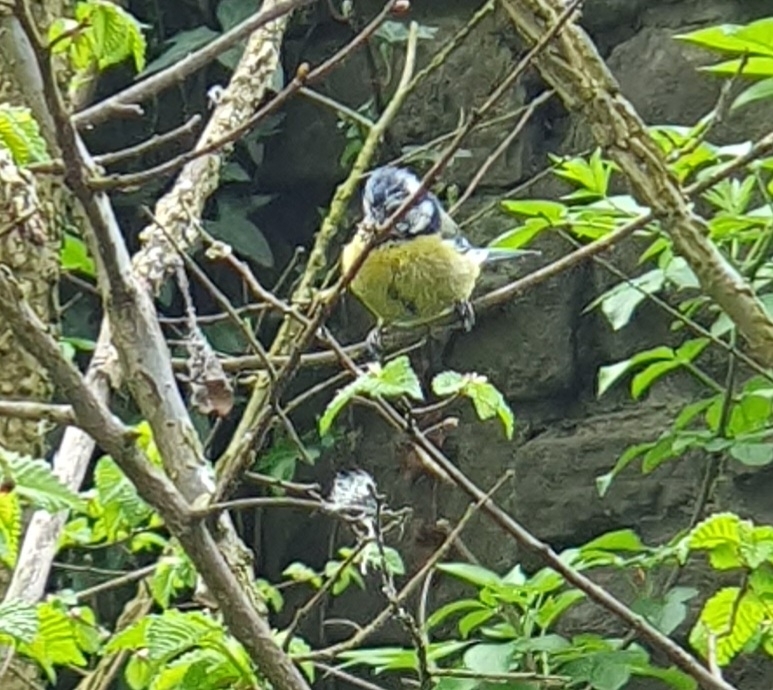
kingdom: Animalia
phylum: Chordata
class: Aves
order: Passeriformes
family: Paridae
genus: Cyanistes
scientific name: Cyanistes caeruleus
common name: Eurasian blue tit
